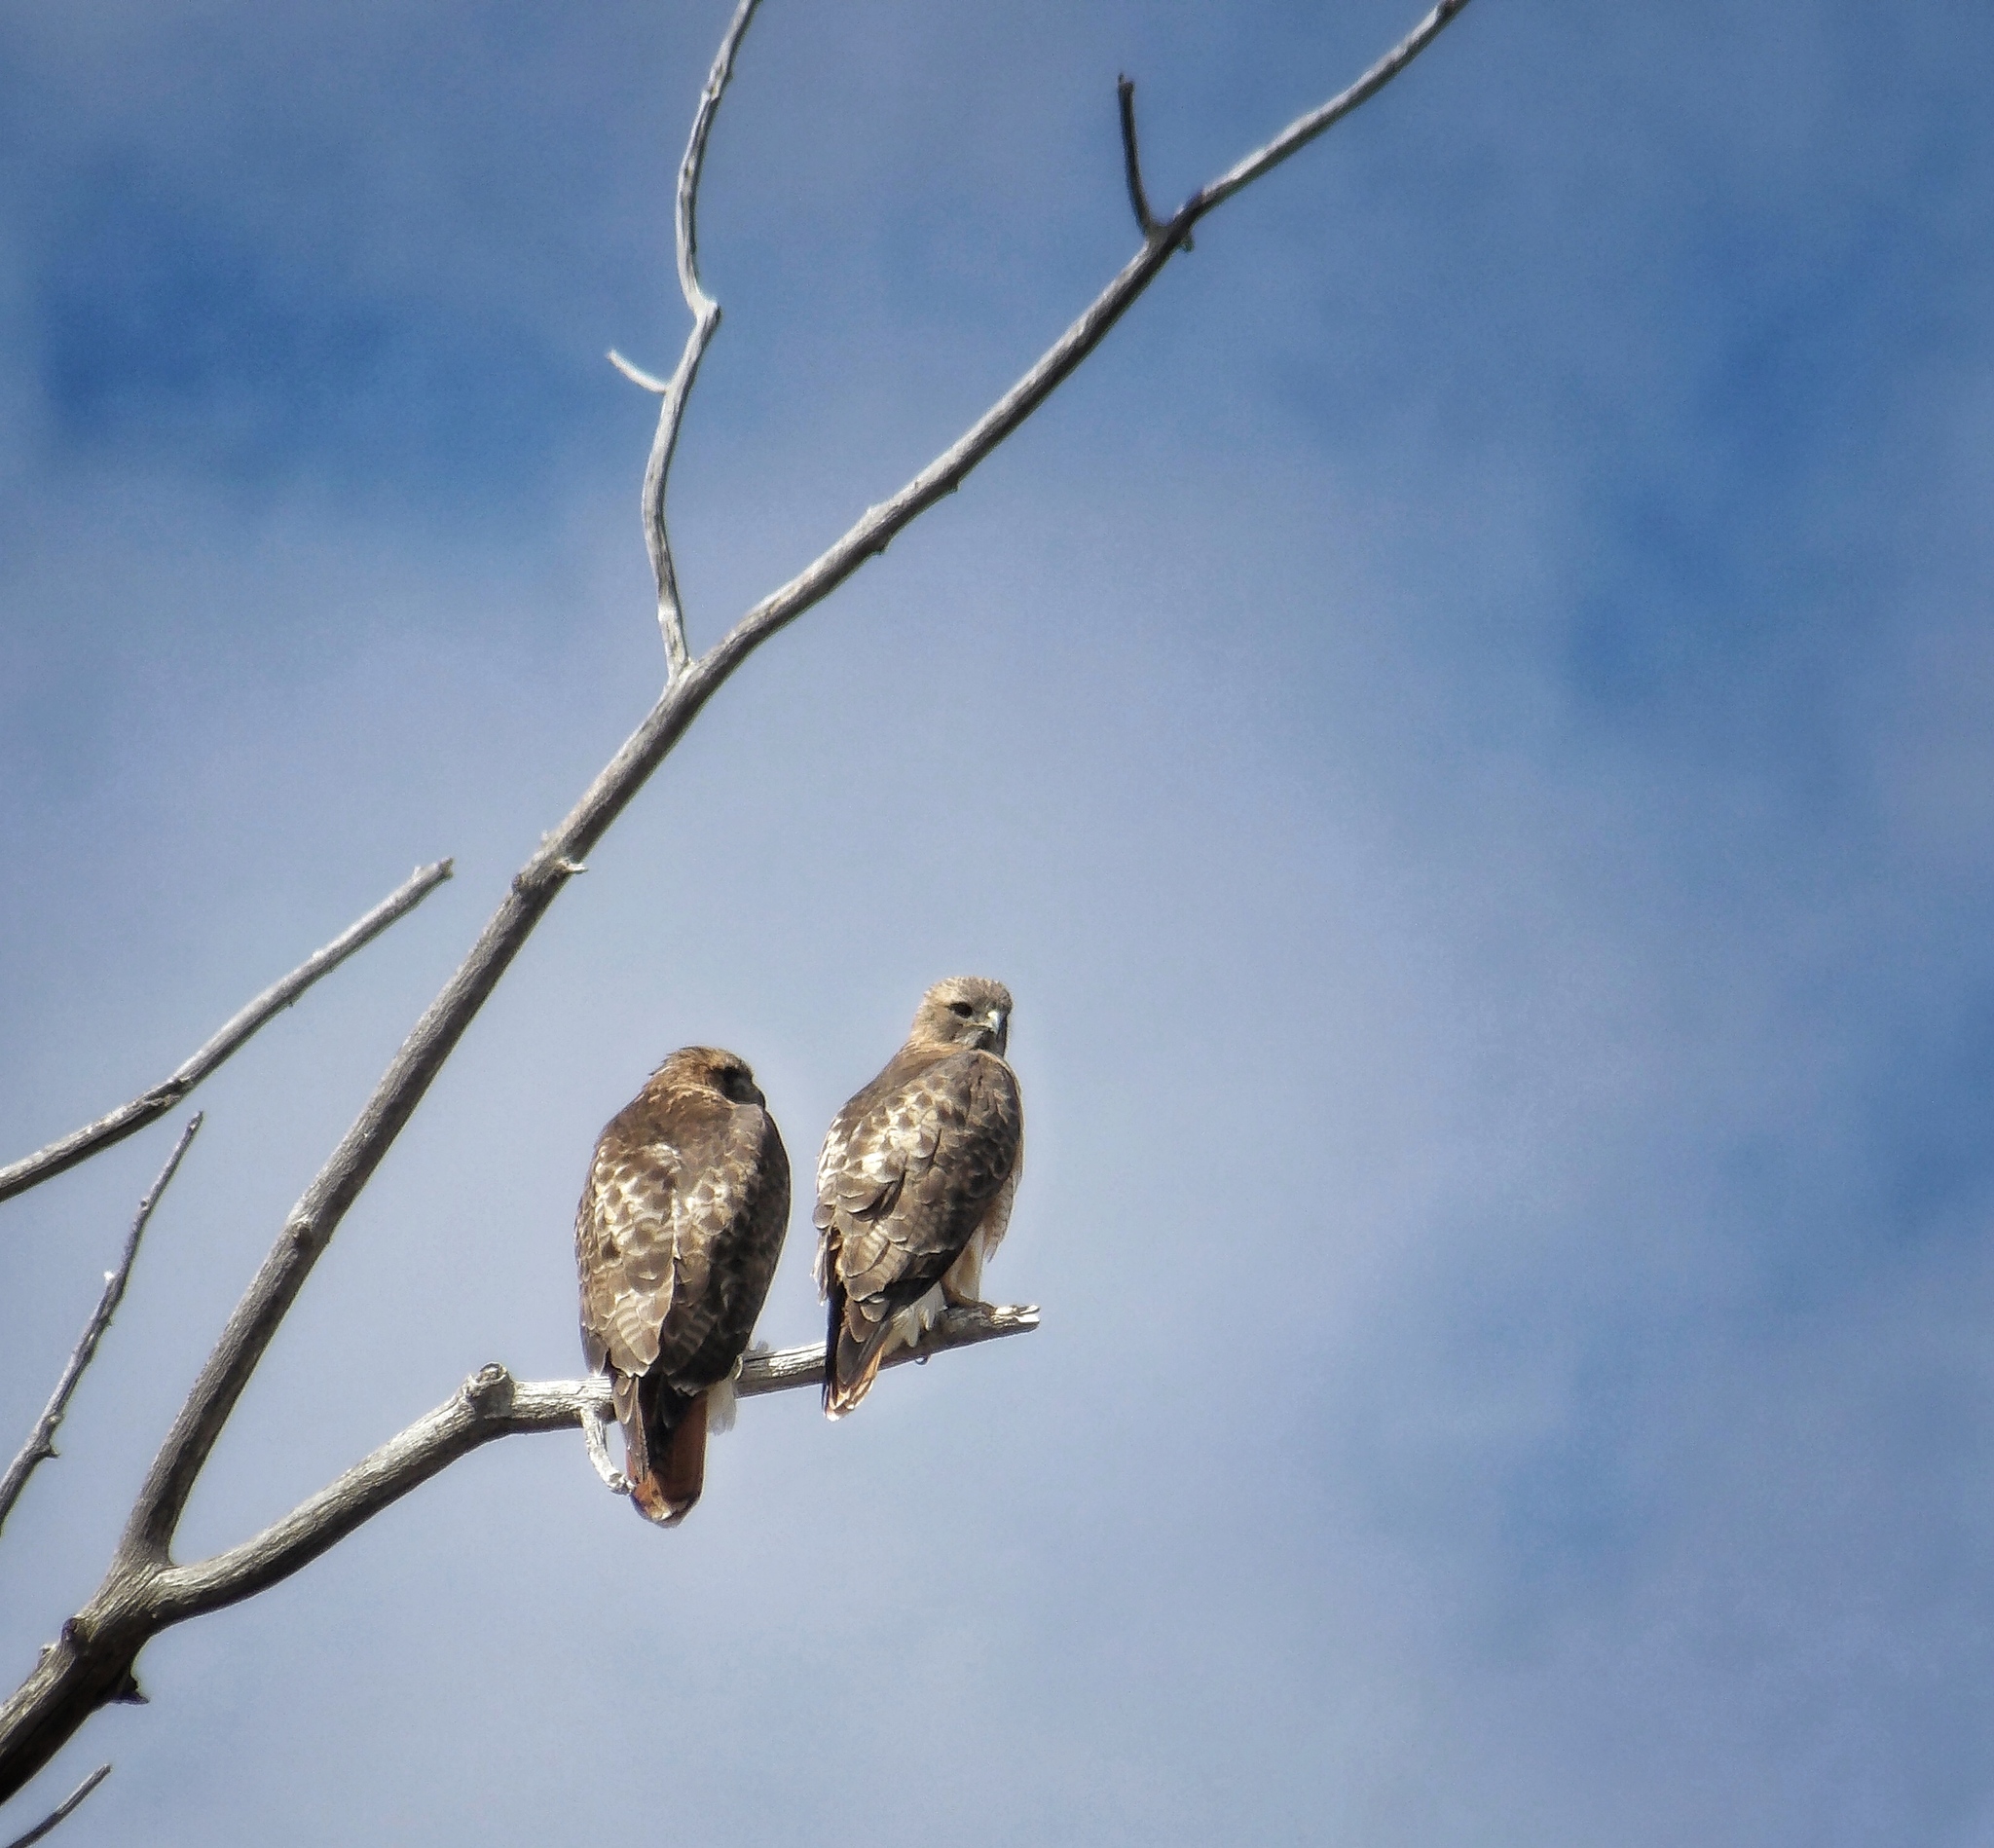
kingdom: Animalia
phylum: Chordata
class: Aves
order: Accipitriformes
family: Accipitridae
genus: Buteo
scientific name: Buteo jamaicensis
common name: Red-tailed hawk
